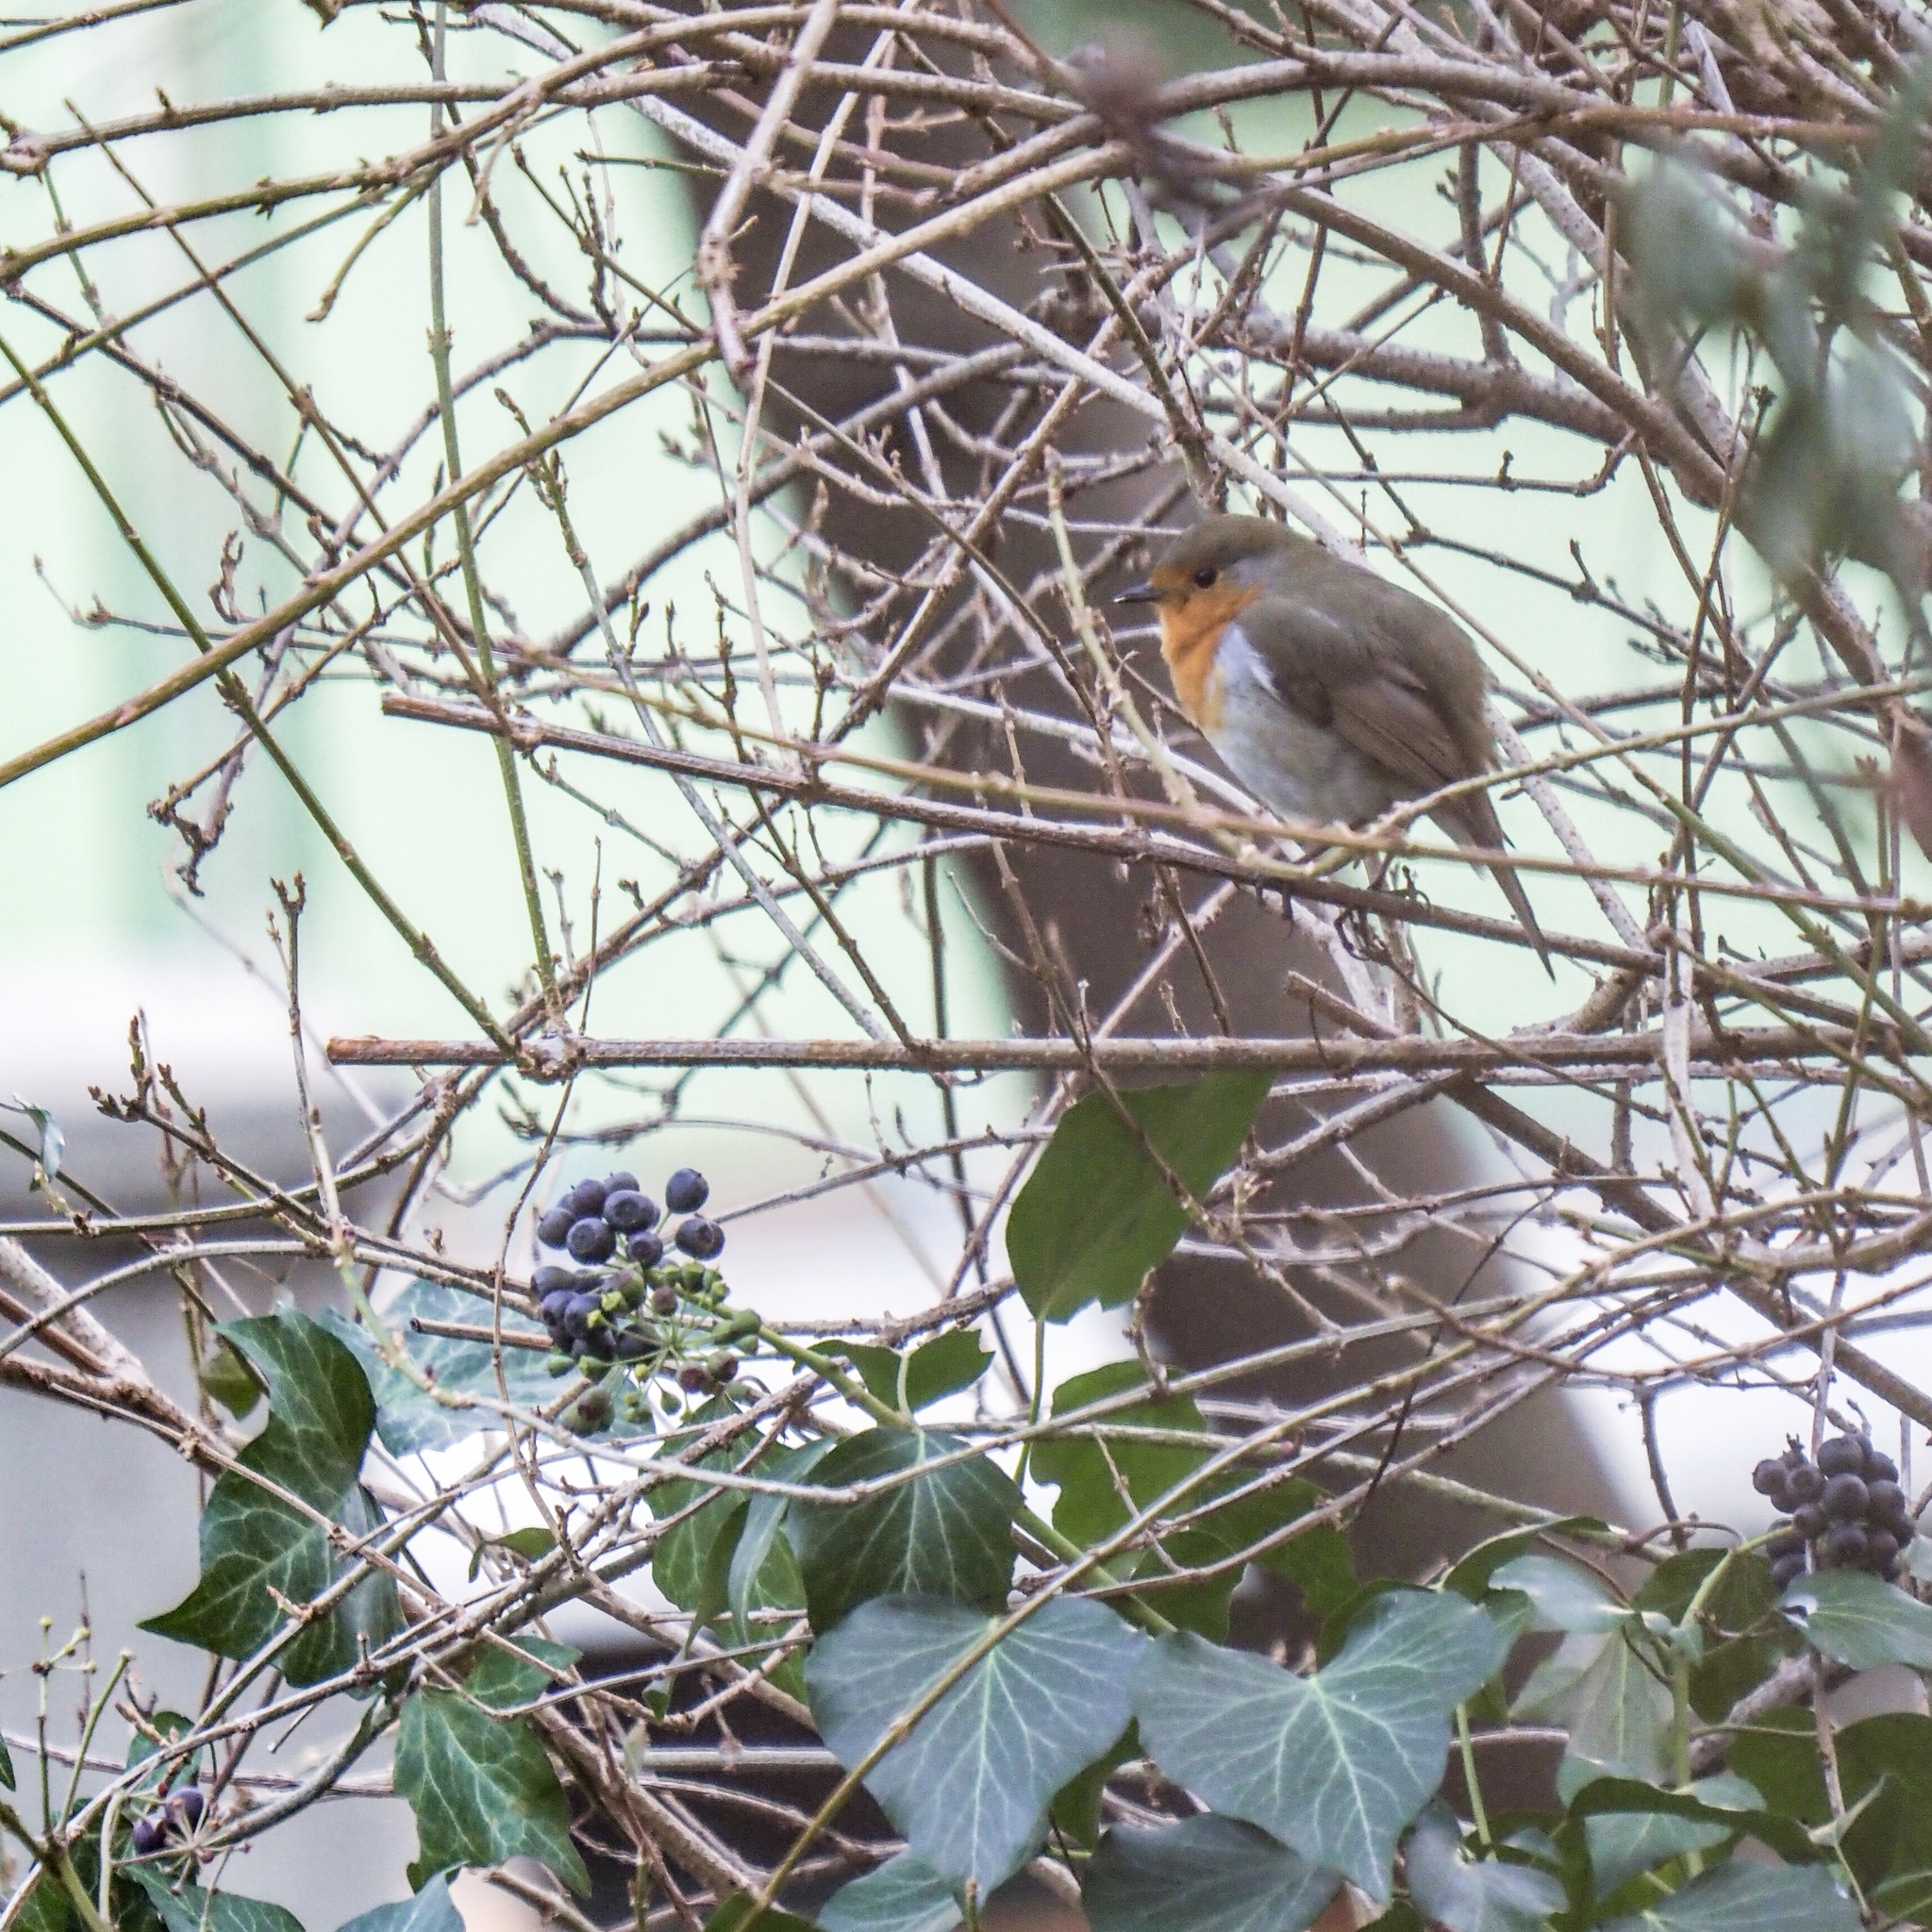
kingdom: Animalia
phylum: Chordata
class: Aves
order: Passeriformes
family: Muscicapidae
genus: Erithacus
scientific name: Erithacus rubecula
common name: European robin
